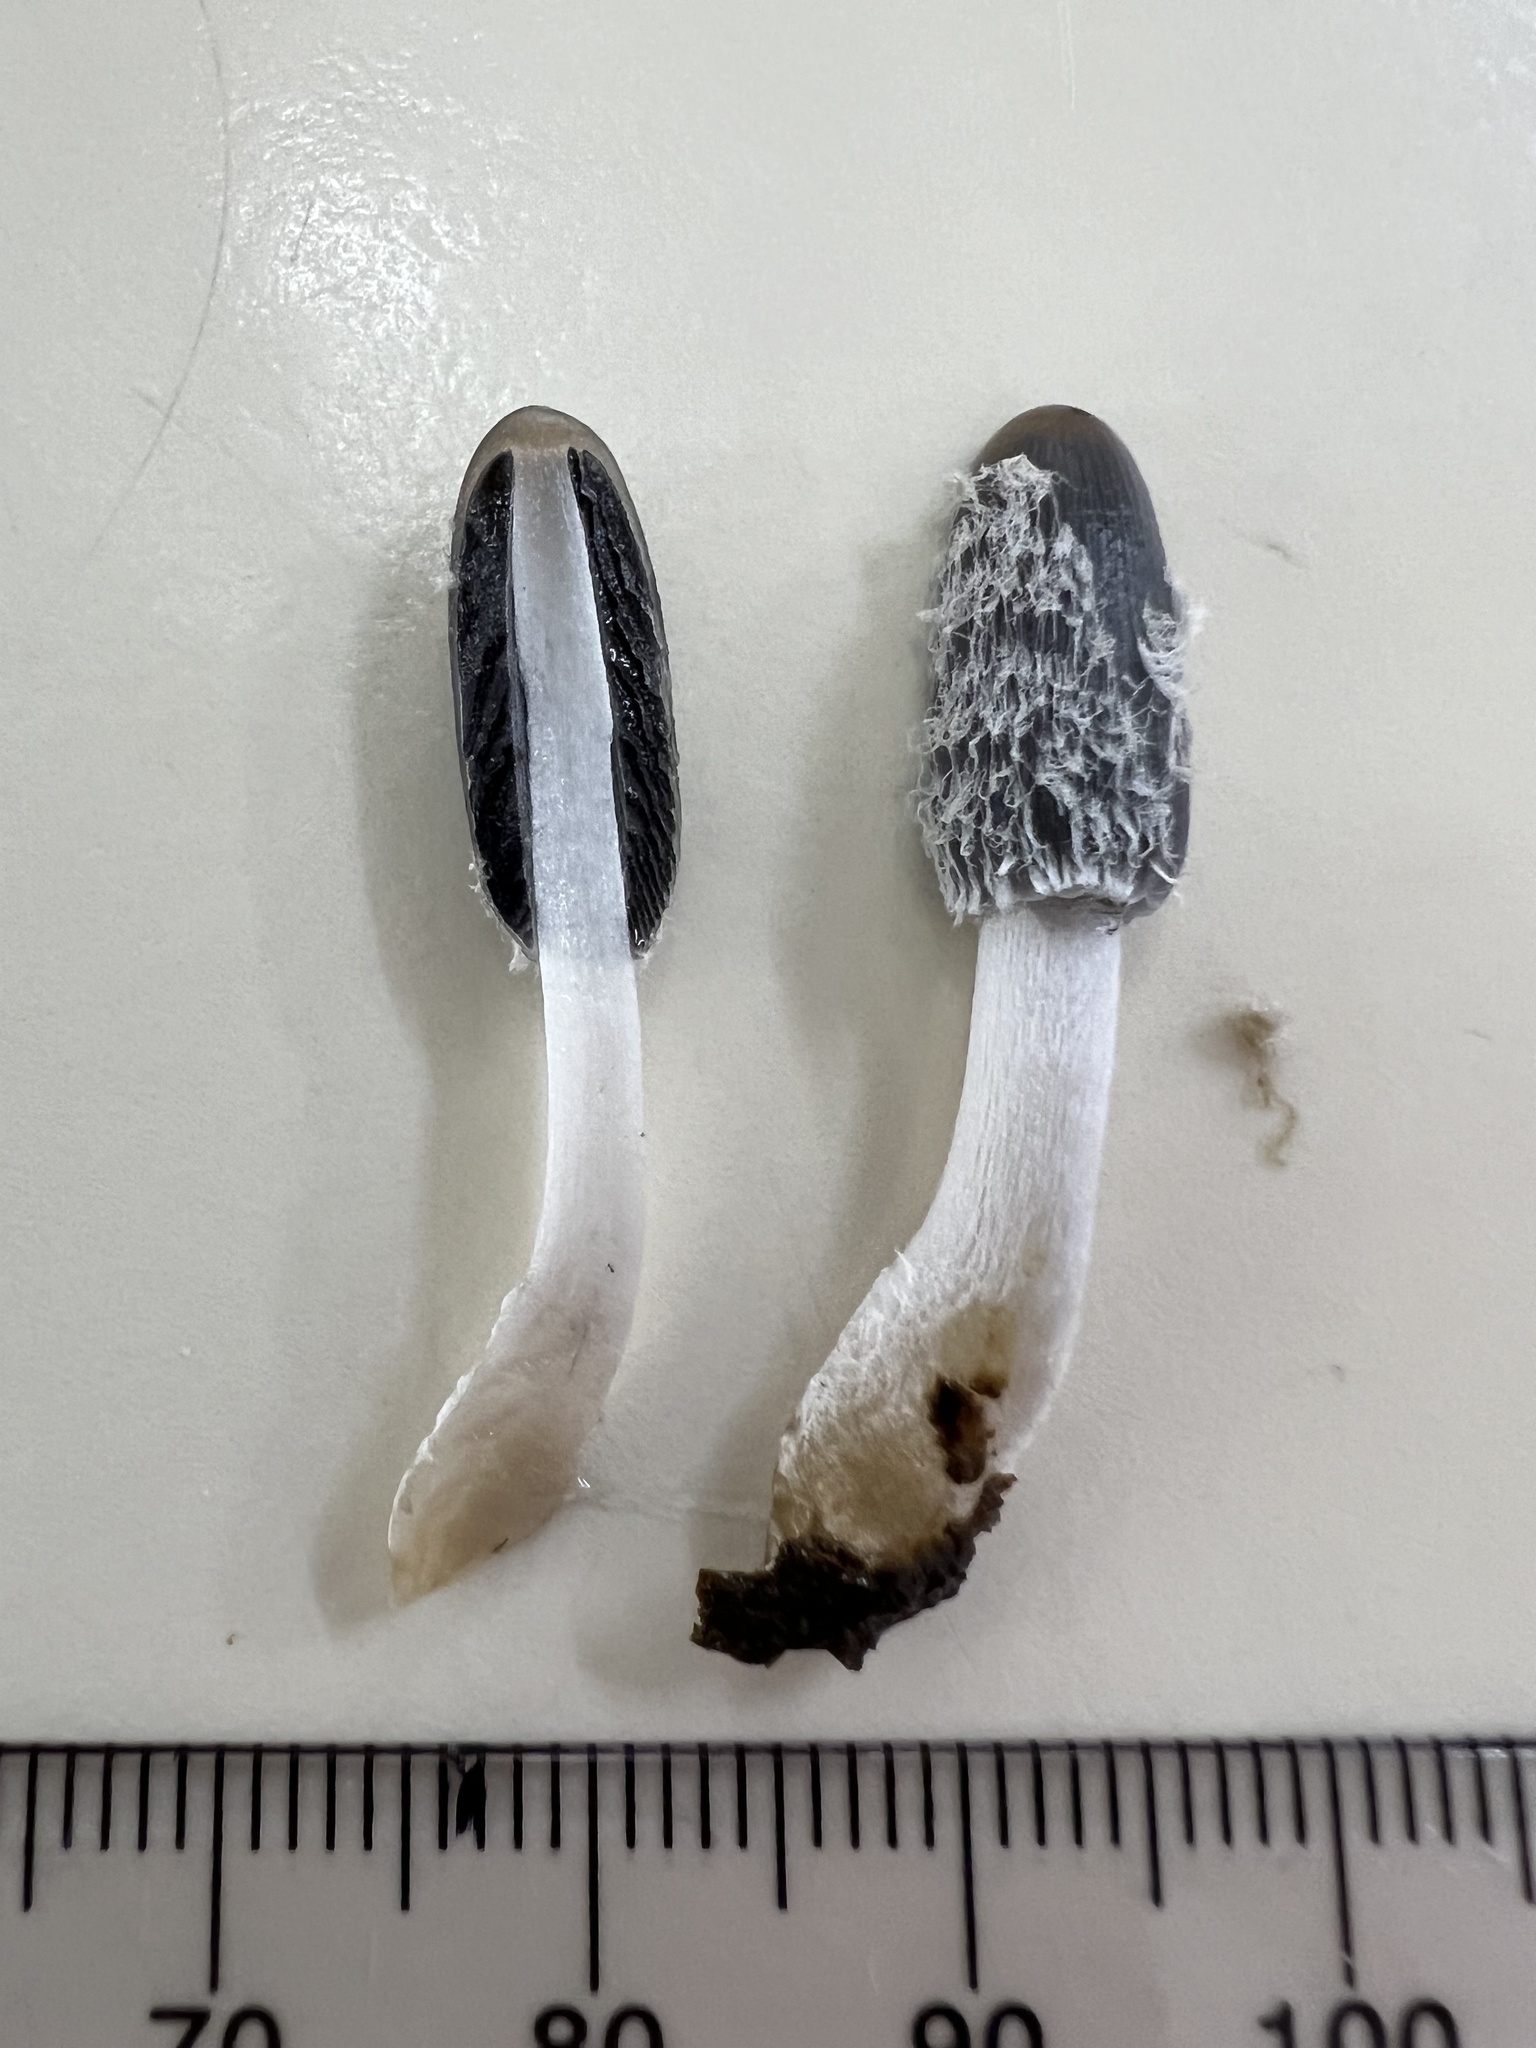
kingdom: Fungi
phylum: Basidiomycota
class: Agaricomycetes
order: Agaricales
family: Psathyrellaceae
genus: Coprinopsis
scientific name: Coprinopsis radiata
